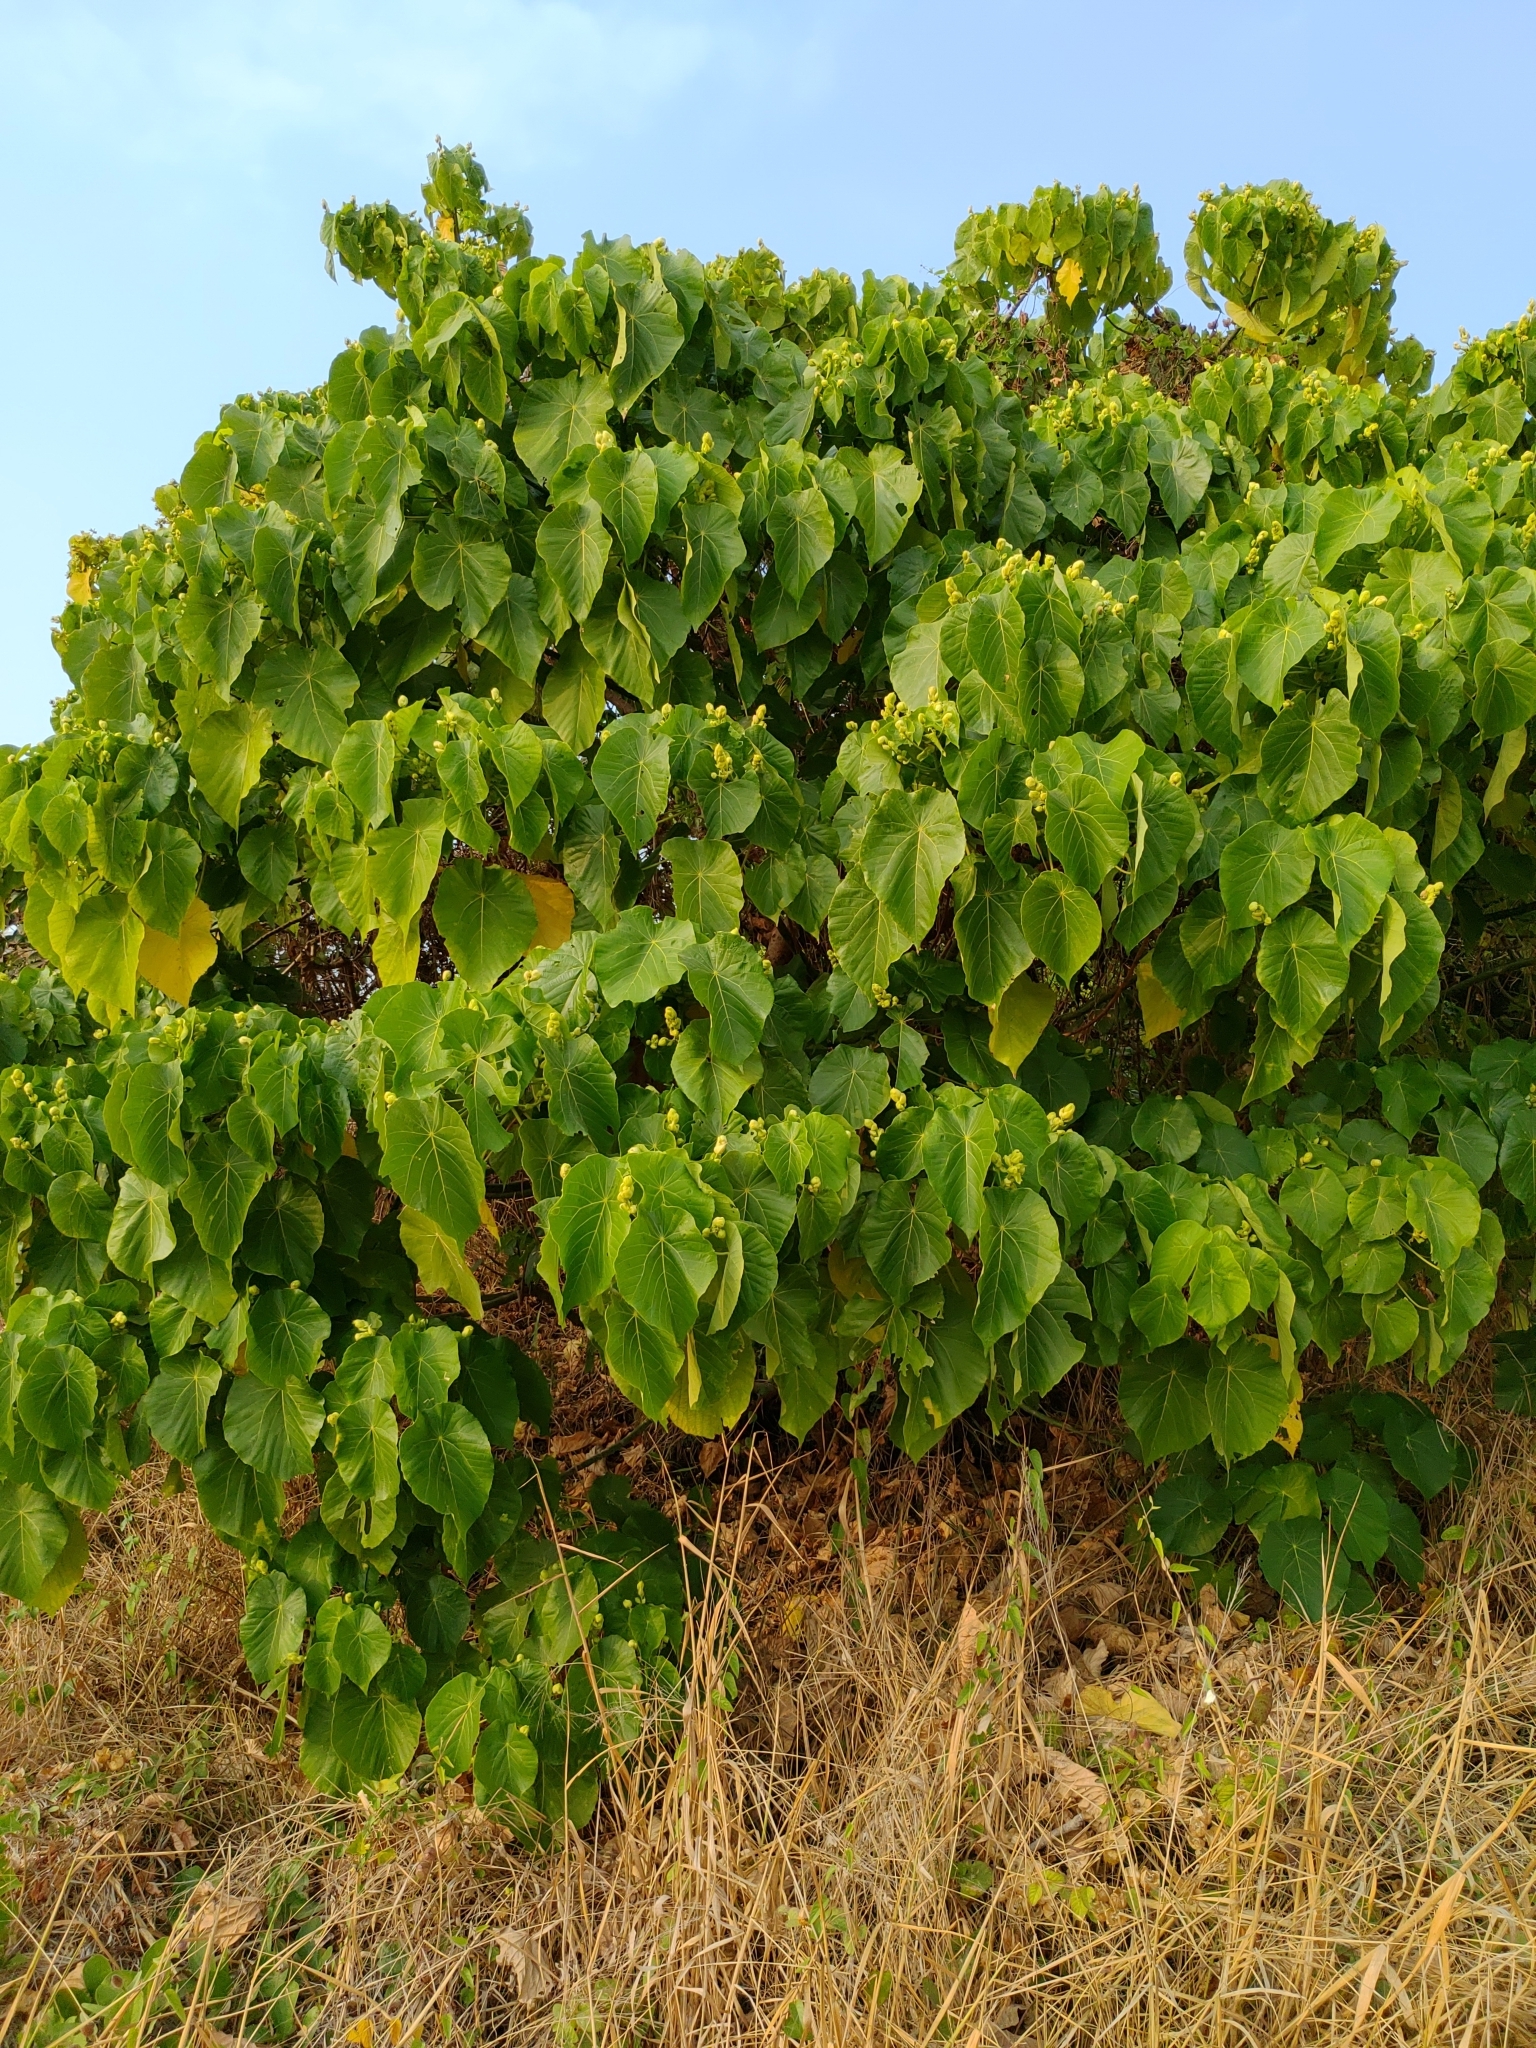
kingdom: Plantae
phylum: Tracheophyta
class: Magnoliopsida
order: Malpighiales
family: Euphorbiaceae
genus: Macaranga
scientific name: Macaranga tanarius
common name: Parasol leaf tree
